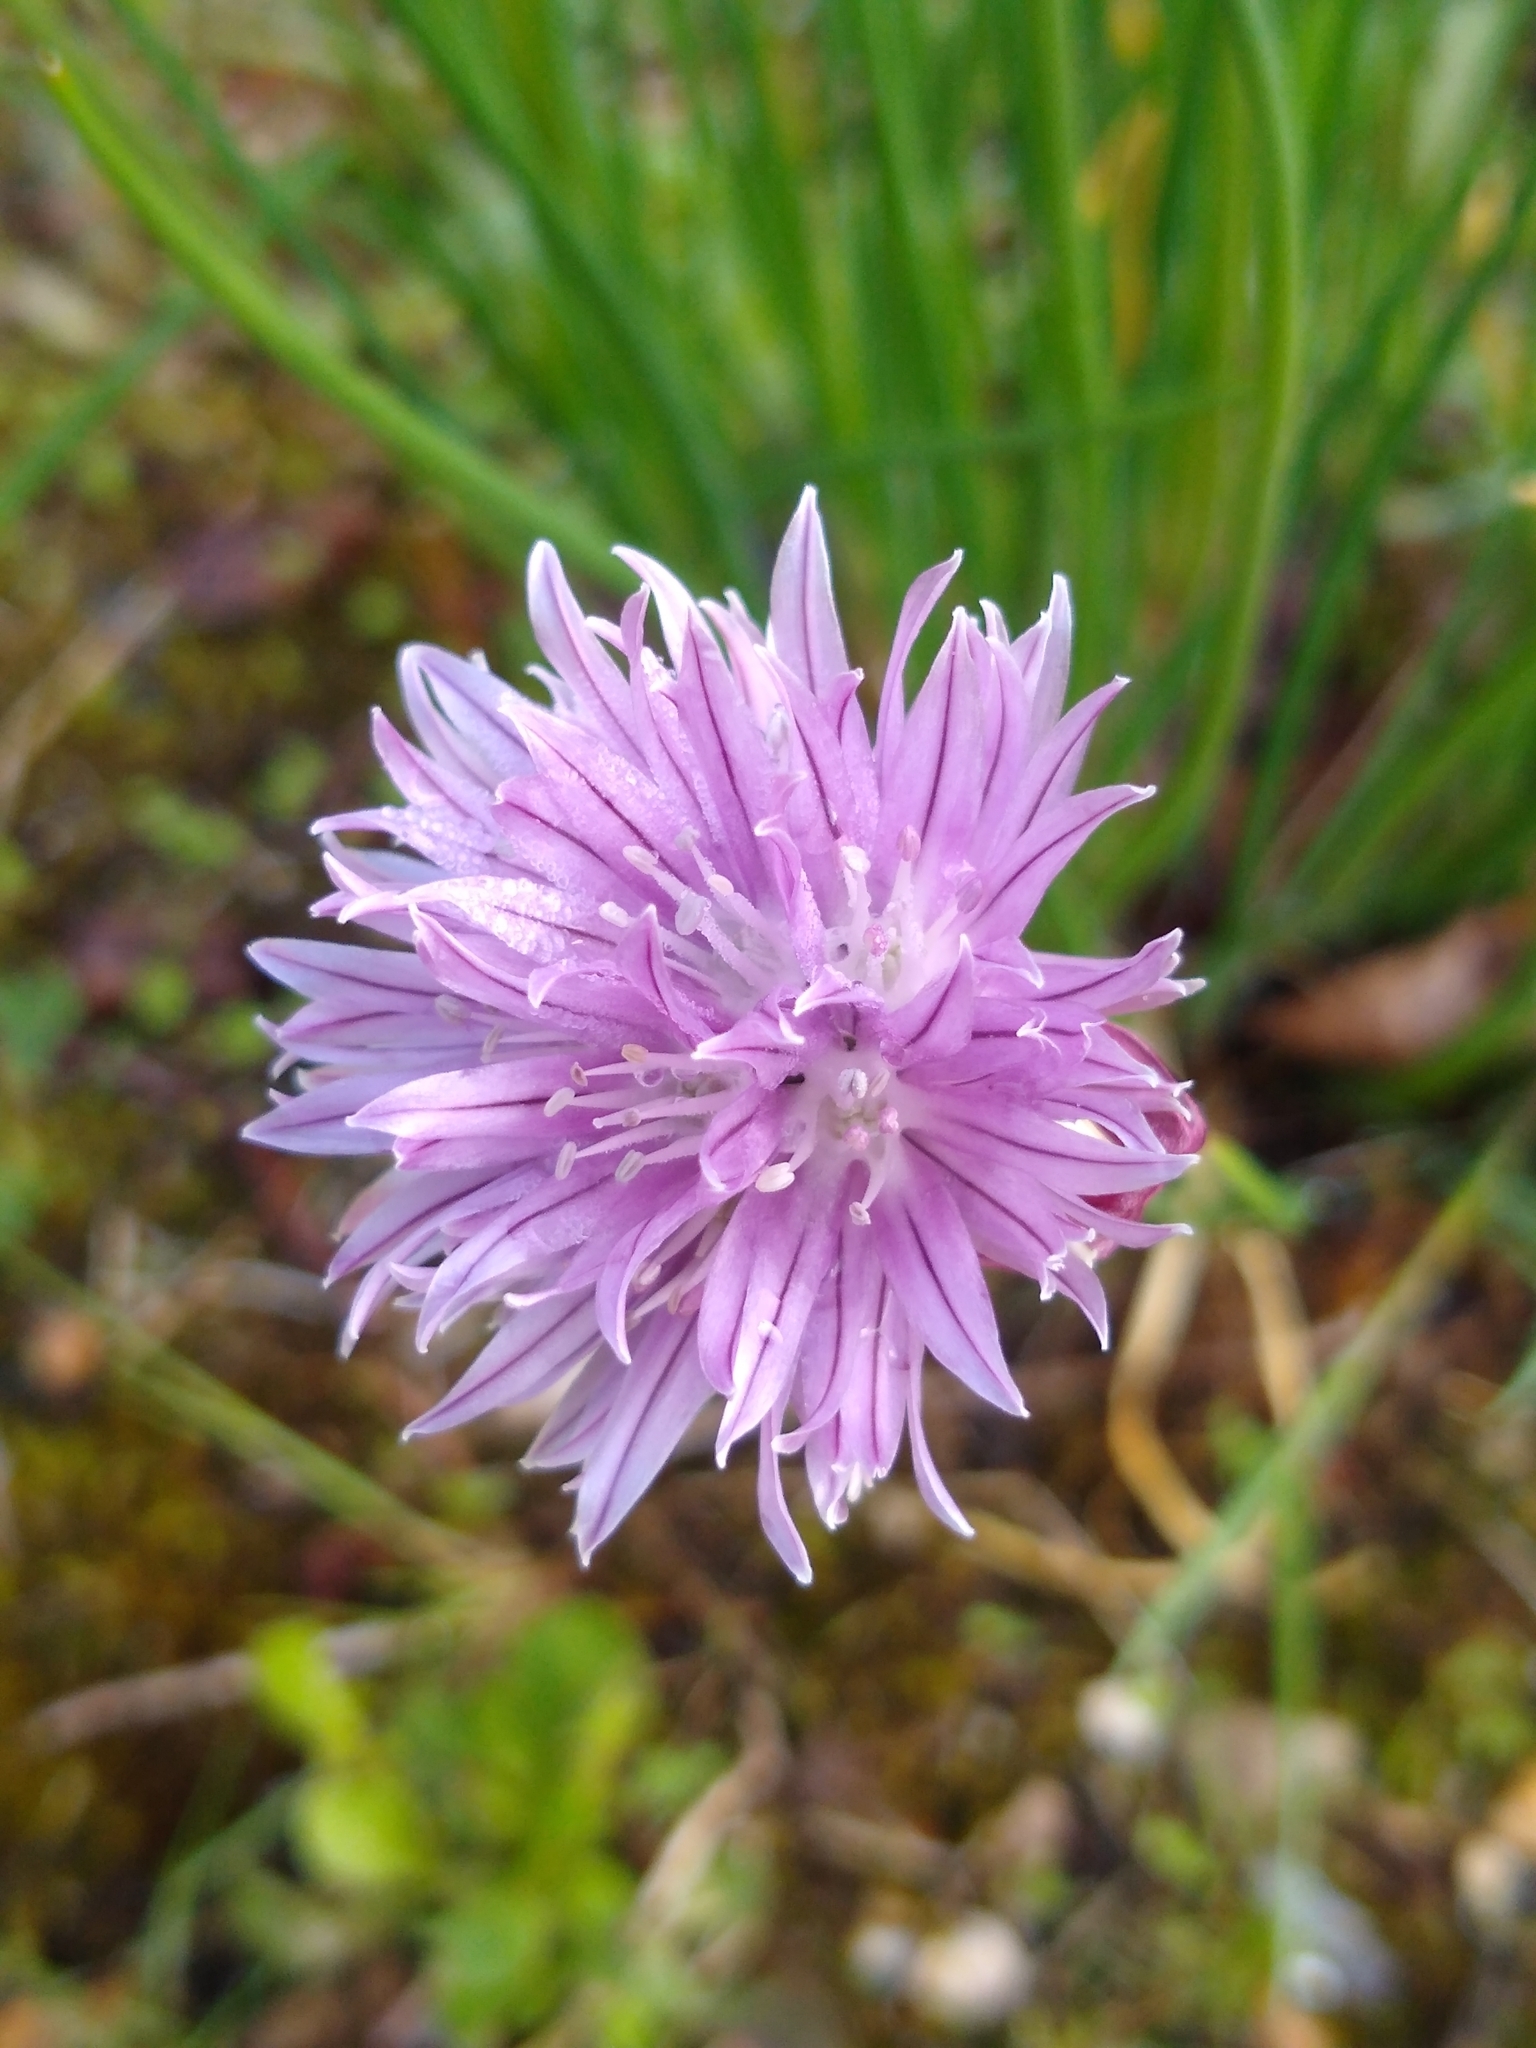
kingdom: Plantae
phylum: Tracheophyta
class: Liliopsida
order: Asparagales
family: Amaryllidaceae
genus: Allium
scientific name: Allium schoenoprasum
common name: Chives
